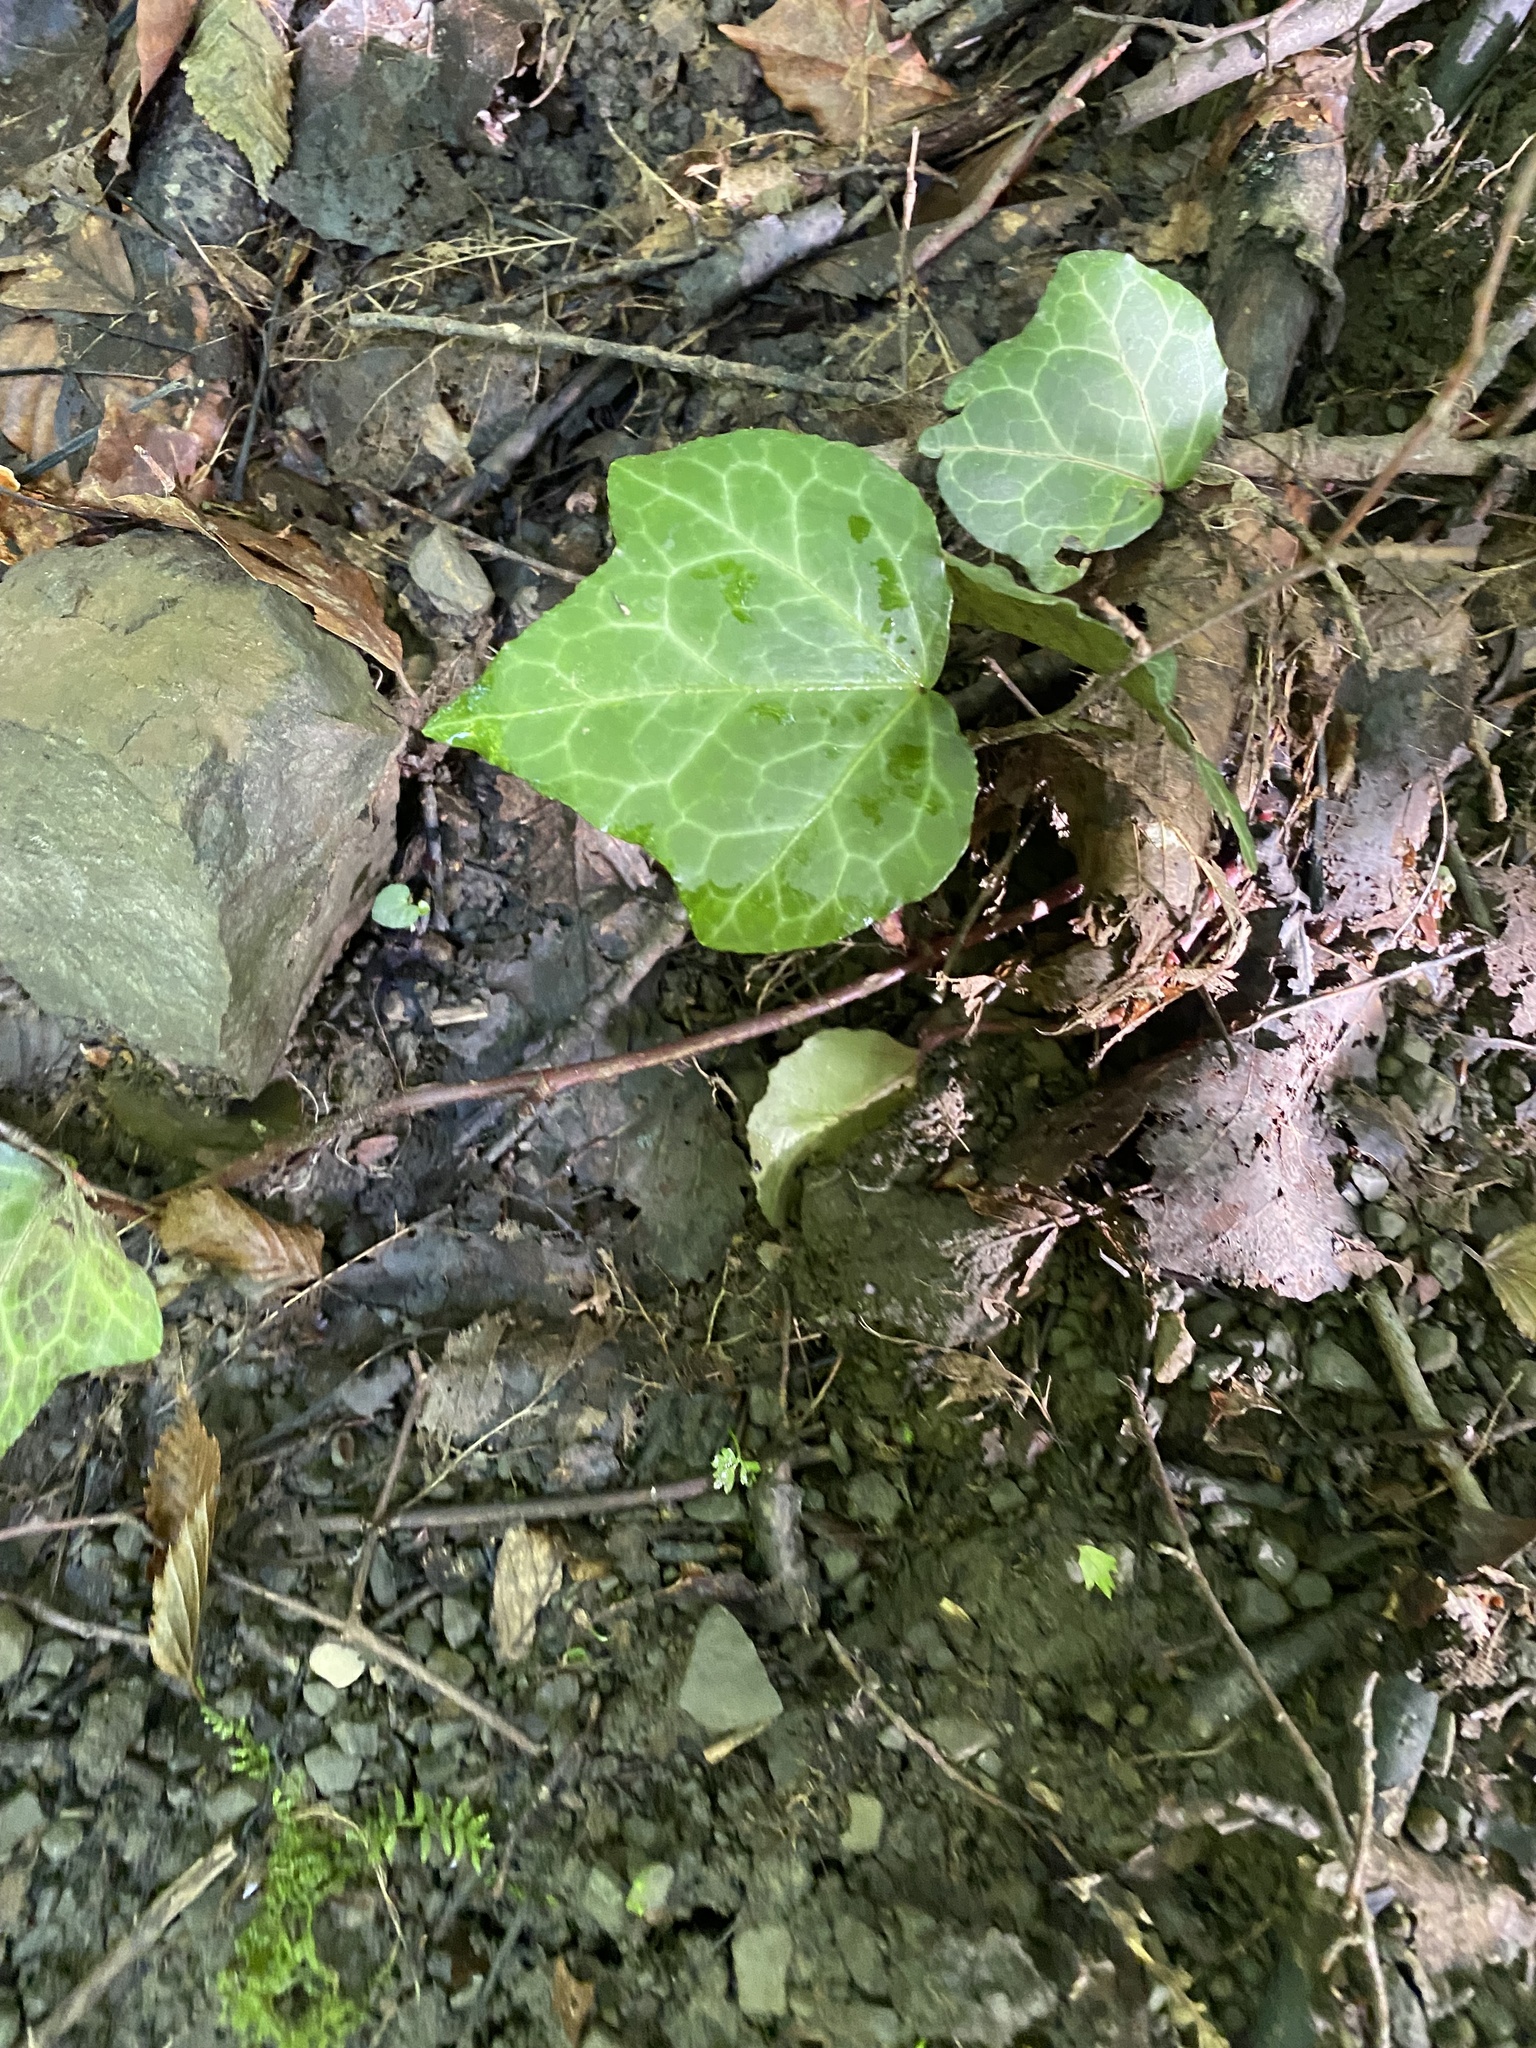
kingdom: Plantae
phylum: Tracheophyta
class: Magnoliopsida
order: Apiales
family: Araliaceae
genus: Hedera
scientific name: Hedera helix
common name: Ivy
